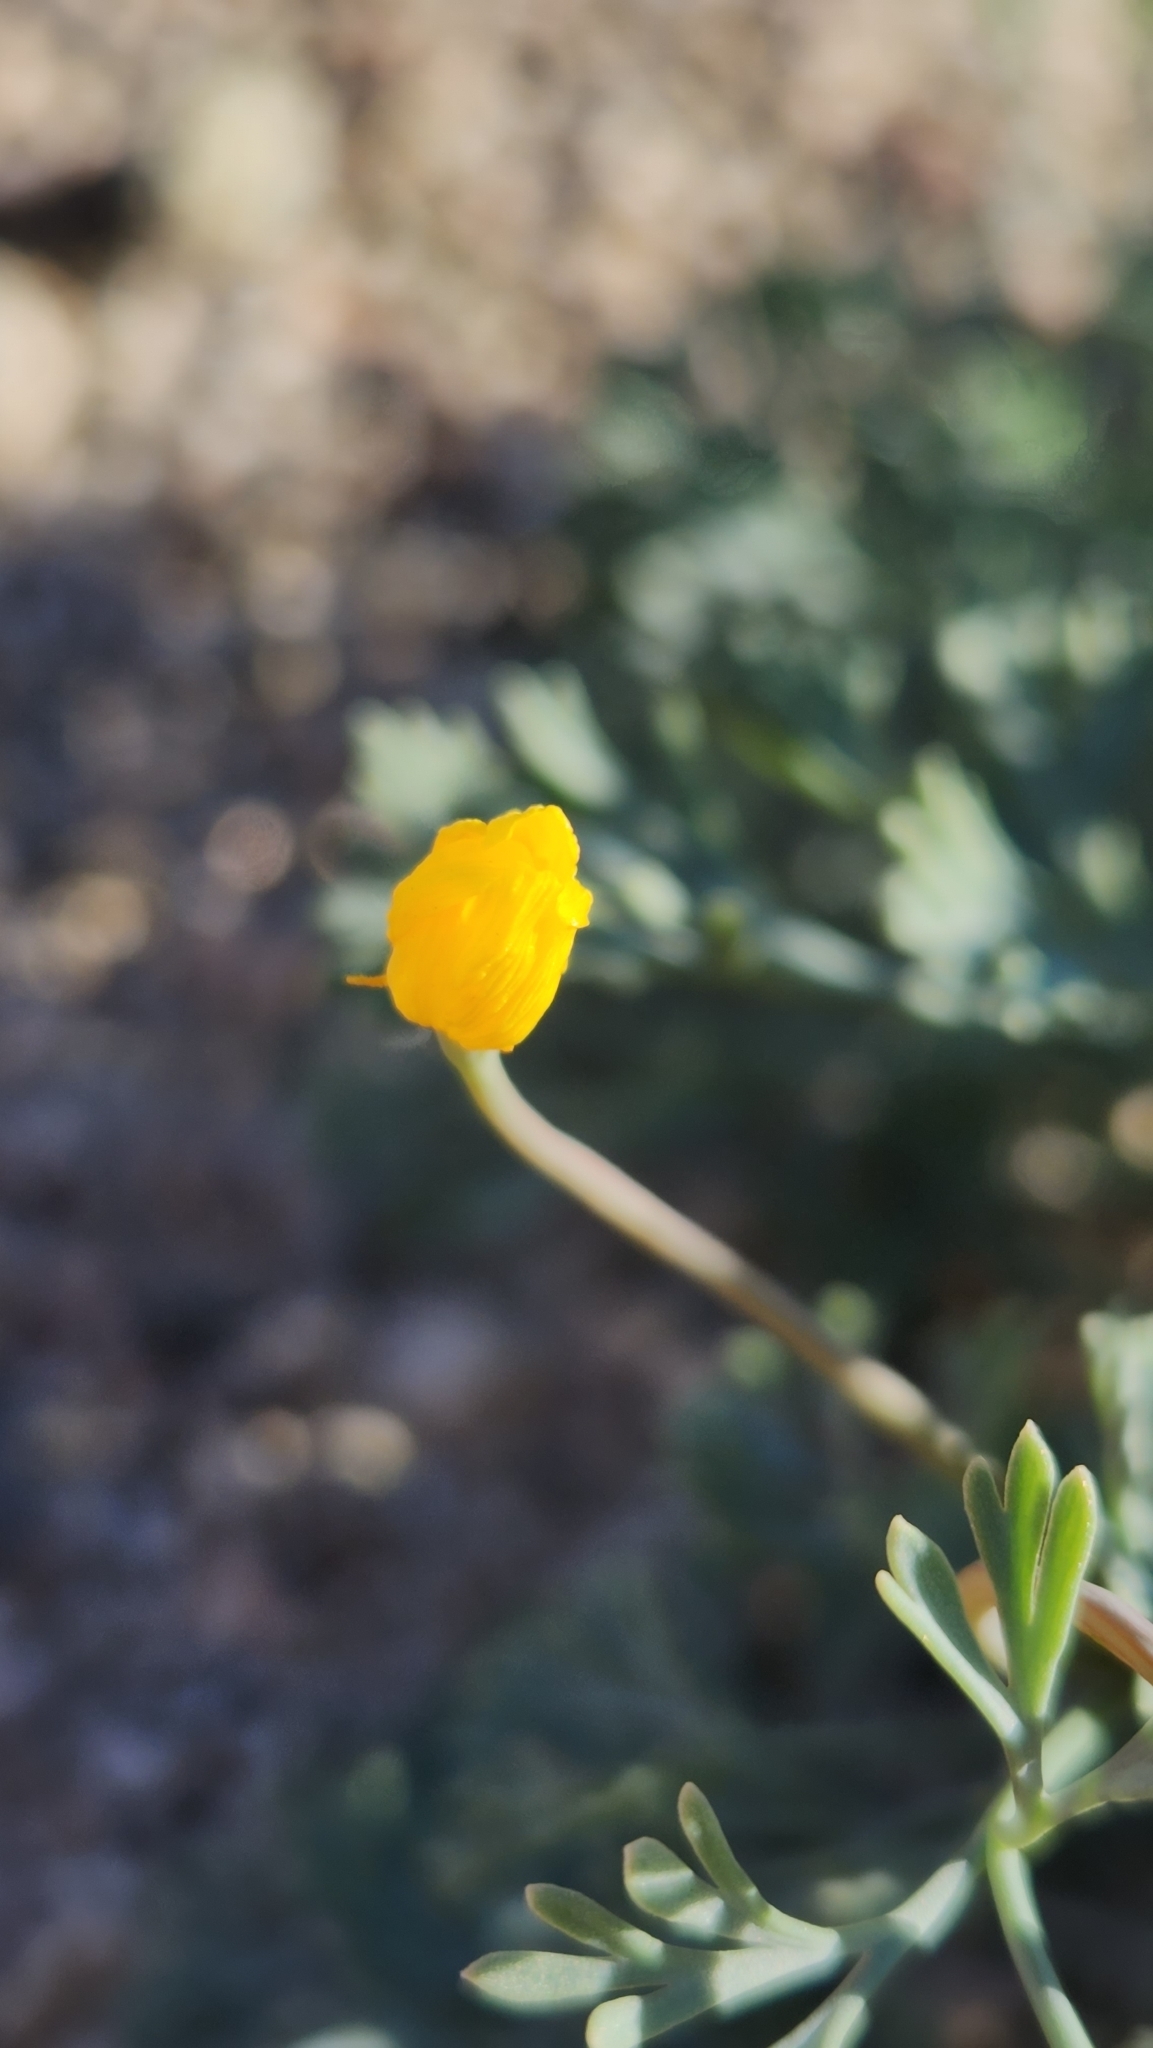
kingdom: Plantae
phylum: Tracheophyta
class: Magnoliopsida
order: Ranunculales
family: Papaveraceae
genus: Eschscholzia
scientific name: Eschscholzia minutiflora
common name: Small-flower california-poppy
